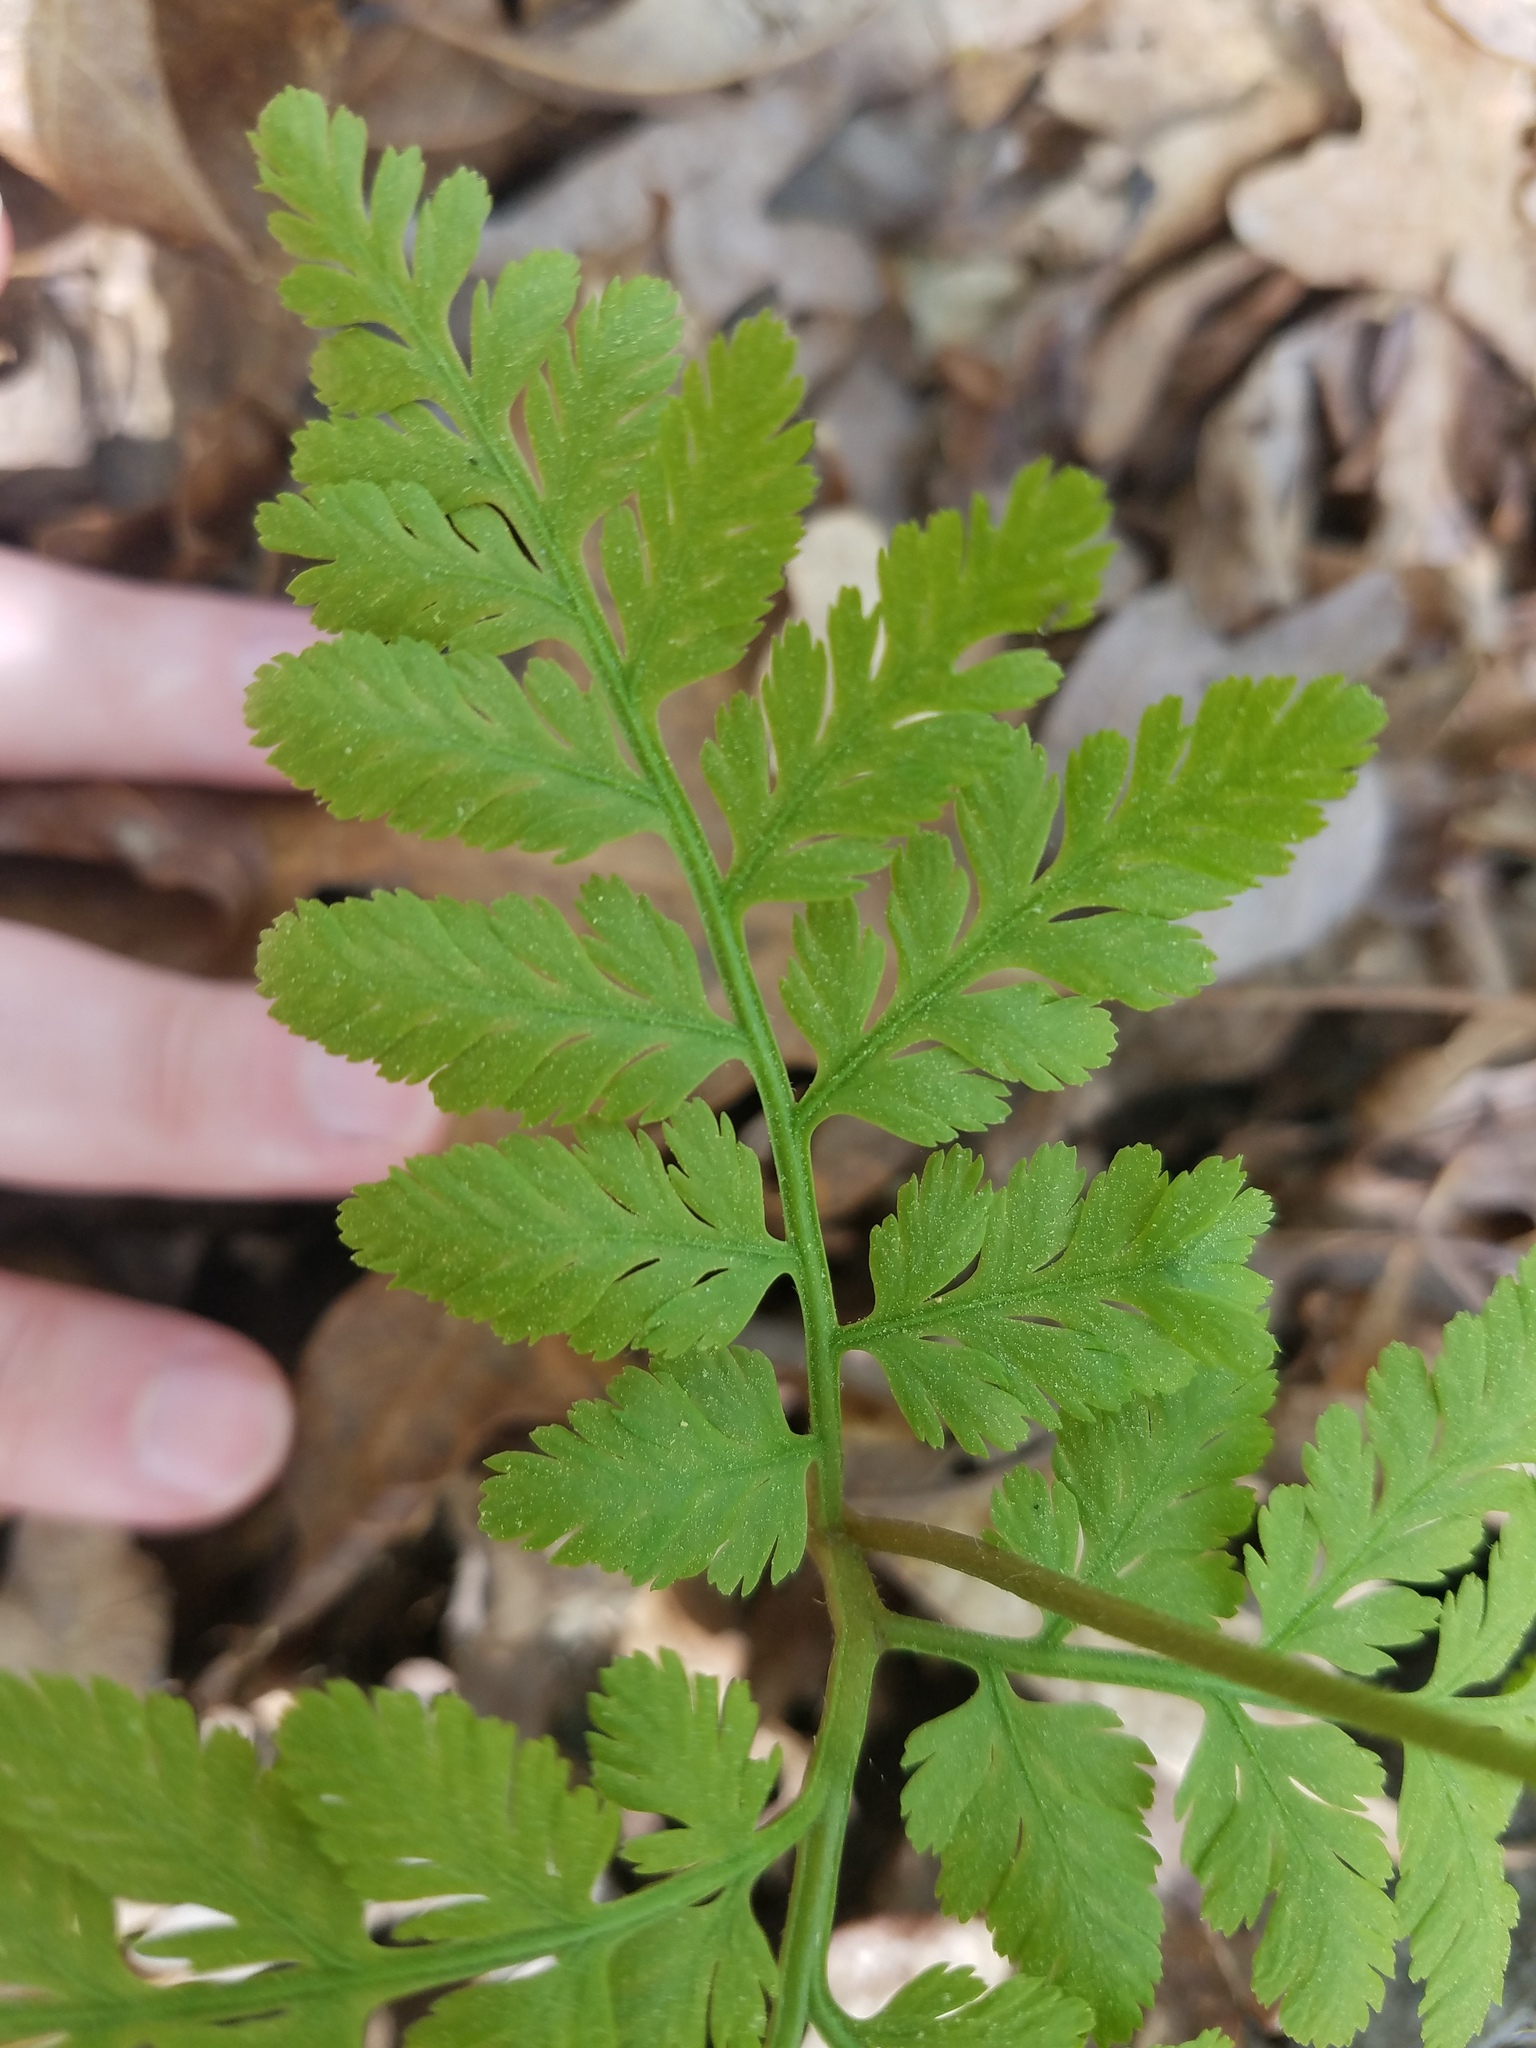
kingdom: Plantae
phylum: Tracheophyta
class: Polypodiopsida
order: Ophioglossales
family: Ophioglossaceae
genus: Botrypus
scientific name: Botrypus virginianus
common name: Common grapefern
